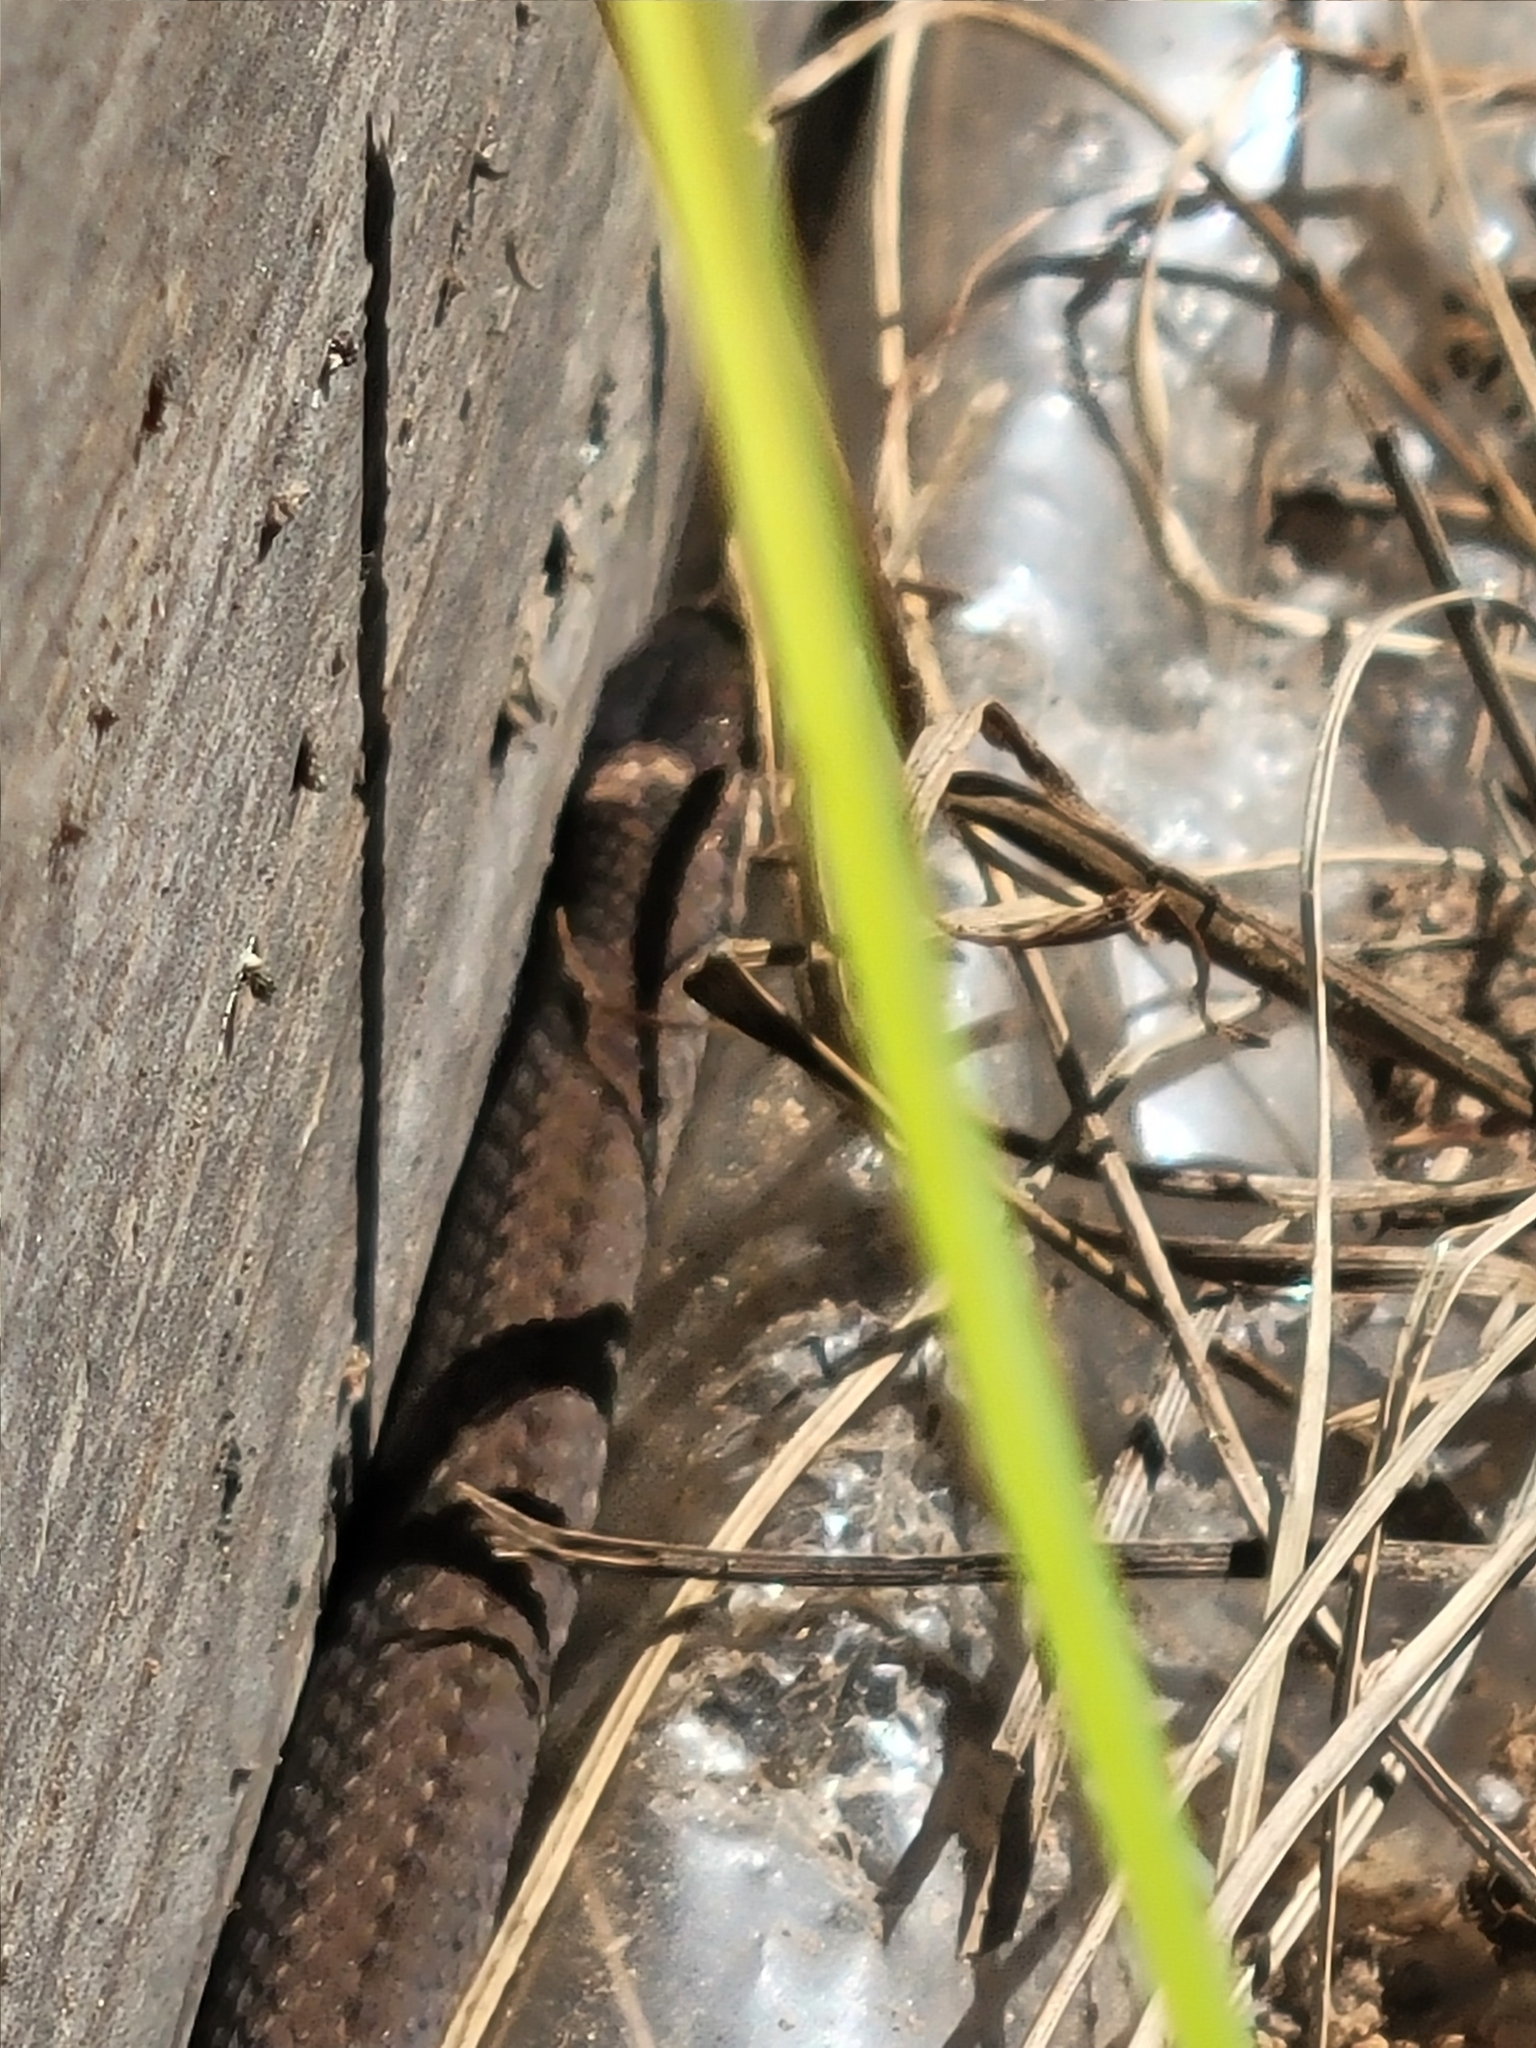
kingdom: Animalia
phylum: Chordata
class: Squamata
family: Colubridae
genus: Storeria
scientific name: Storeria occipitomaculata
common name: Redbelly snake
